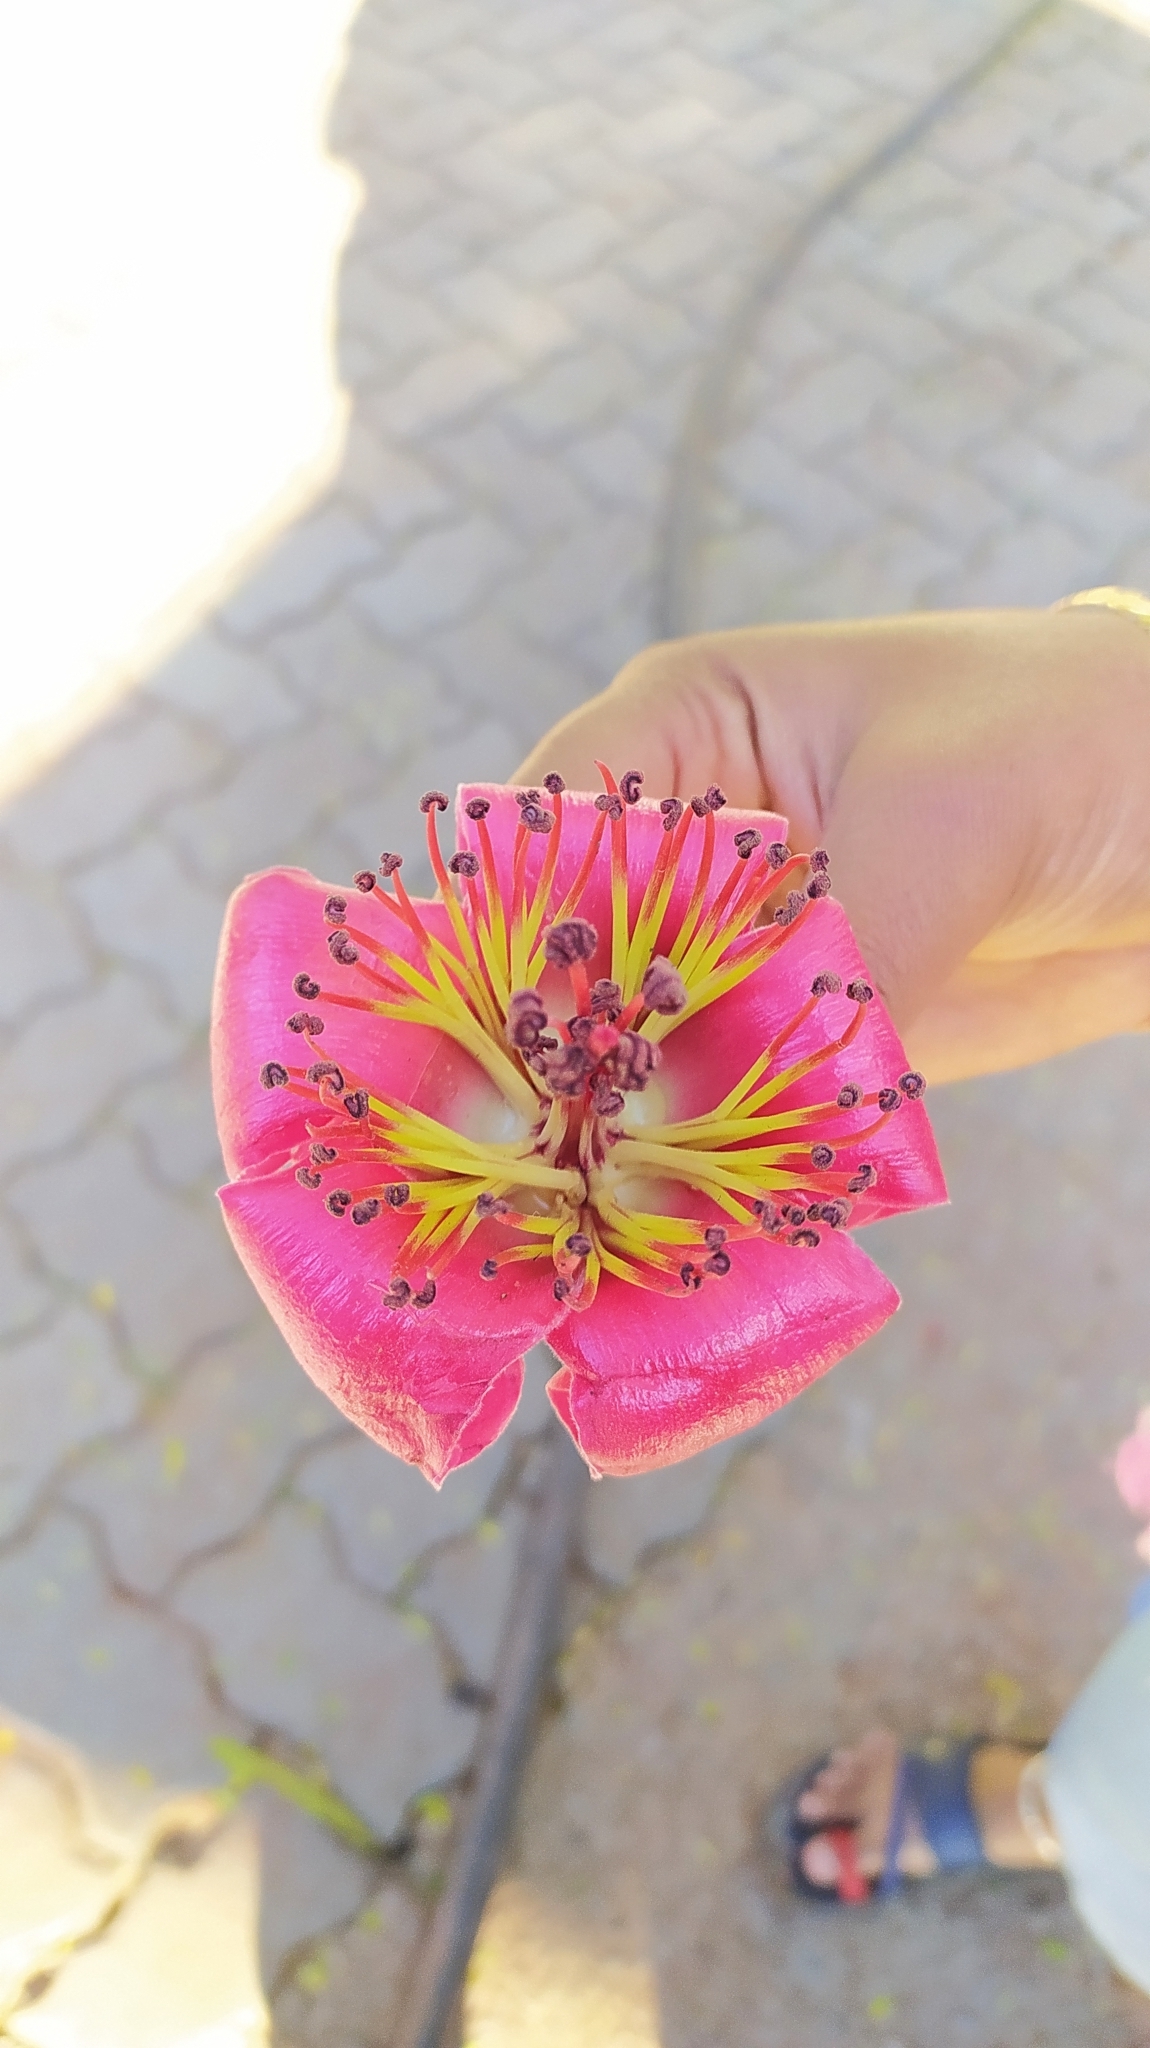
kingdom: Plantae
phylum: Tracheophyta
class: Magnoliopsida
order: Malvales
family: Malvaceae
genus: Bombax
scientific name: Bombax ceiba
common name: Northern-cottonwood
